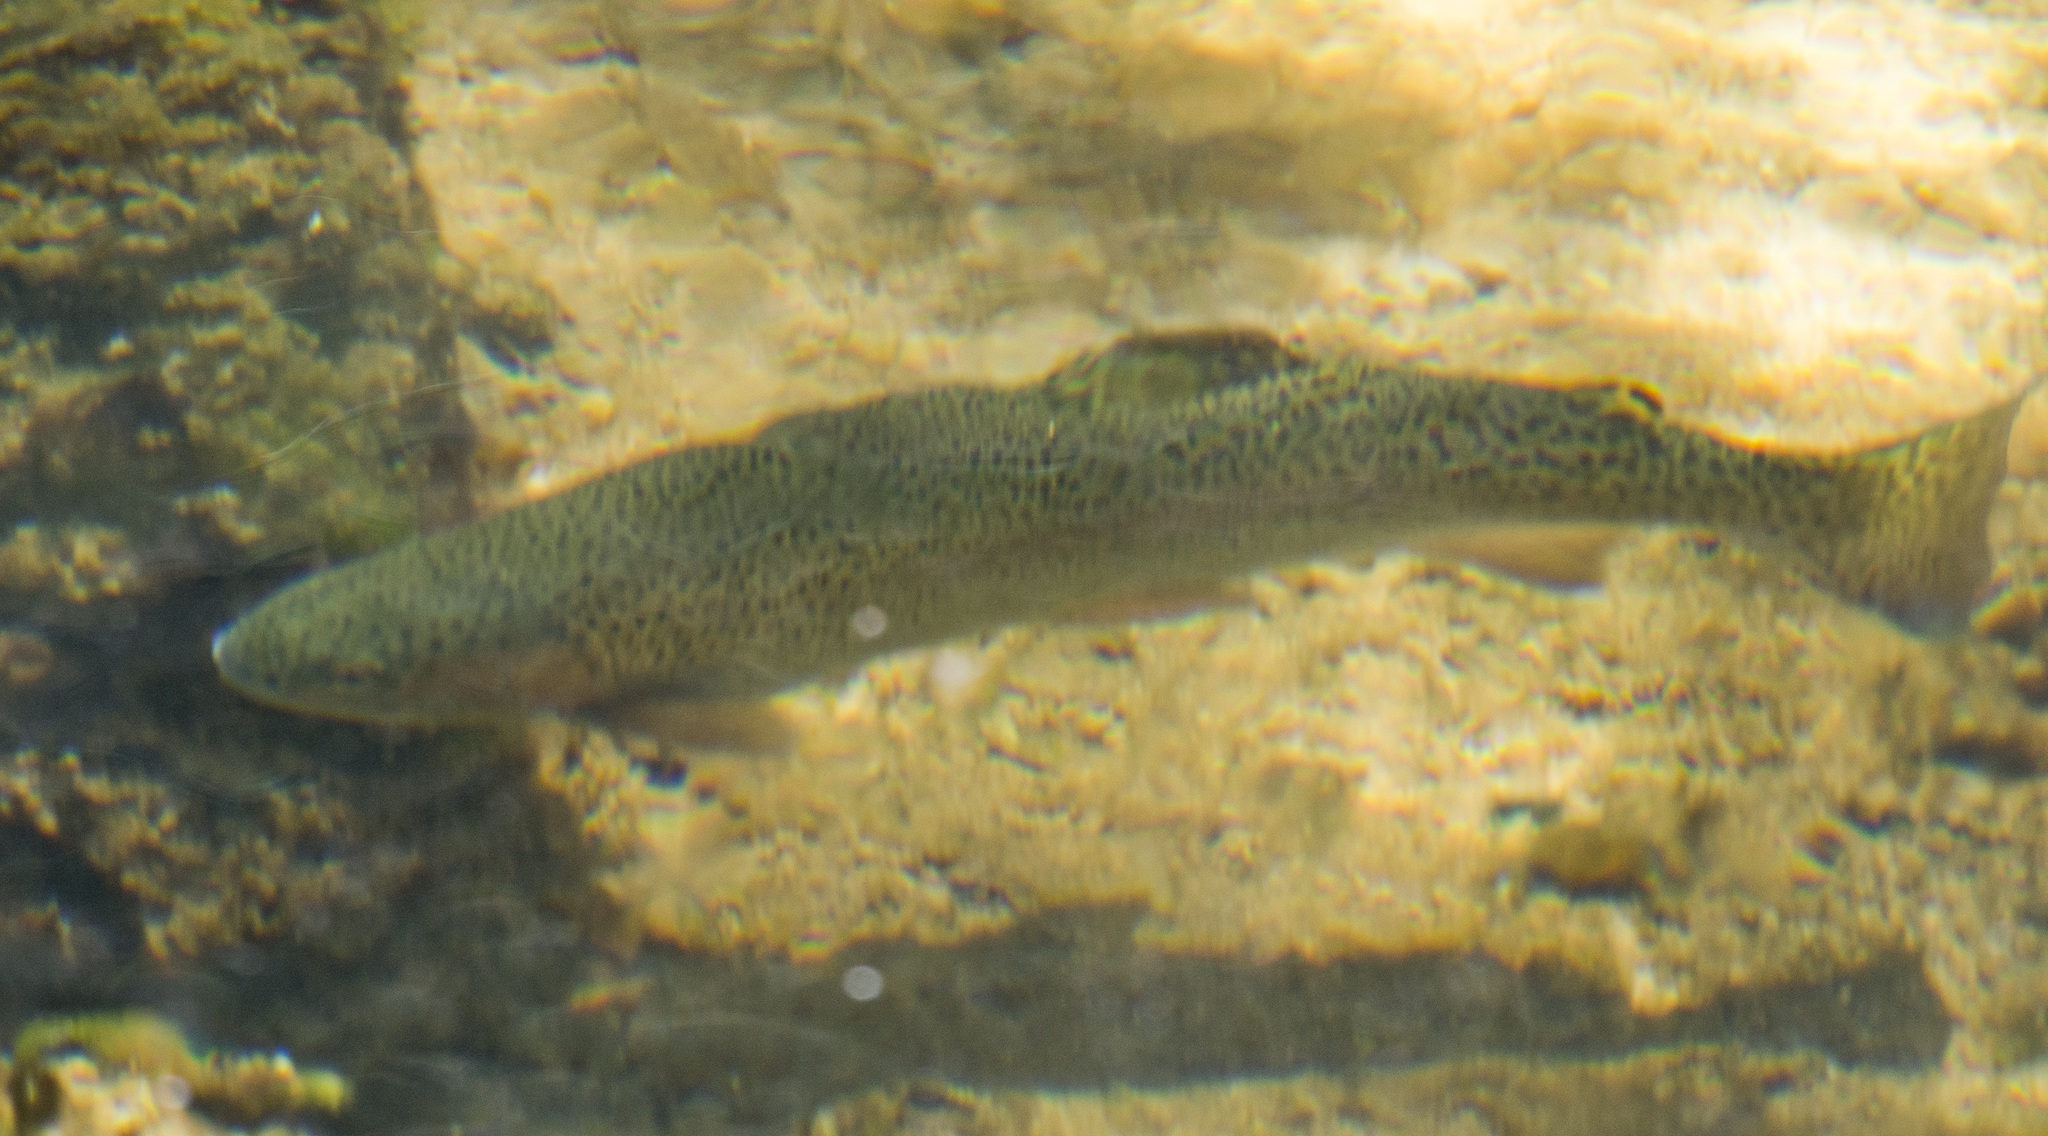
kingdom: Animalia
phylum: Chordata
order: Salmoniformes
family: Salmonidae
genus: Oncorhynchus
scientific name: Oncorhynchus mykiss
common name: Rainbow trout
